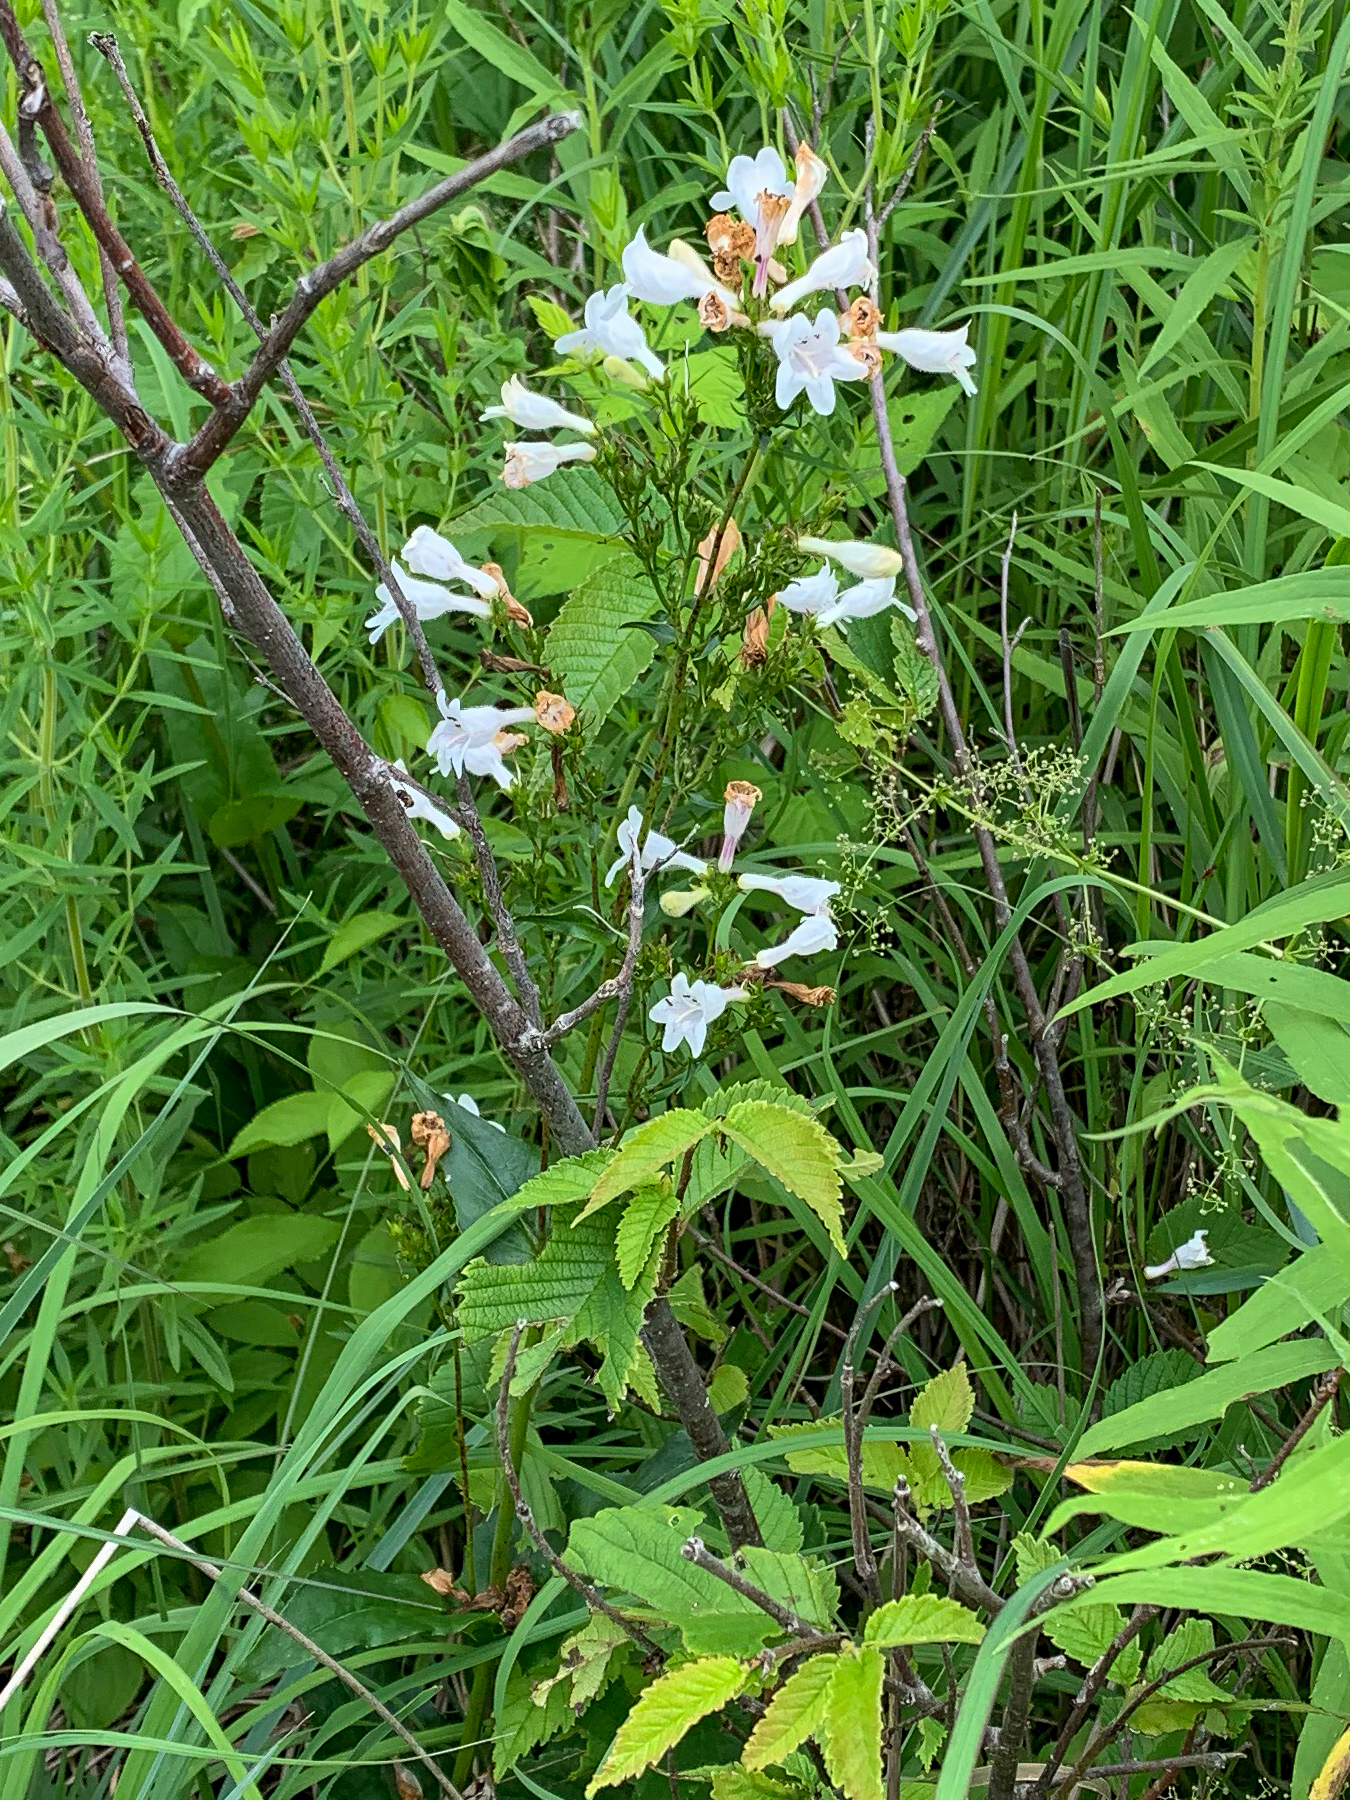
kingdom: Plantae
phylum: Tracheophyta
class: Magnoliopsida
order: Lamiales
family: Plantaginaceae
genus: Penstemon
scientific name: Penstemon digitalis
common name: Foxglove beardtongue
